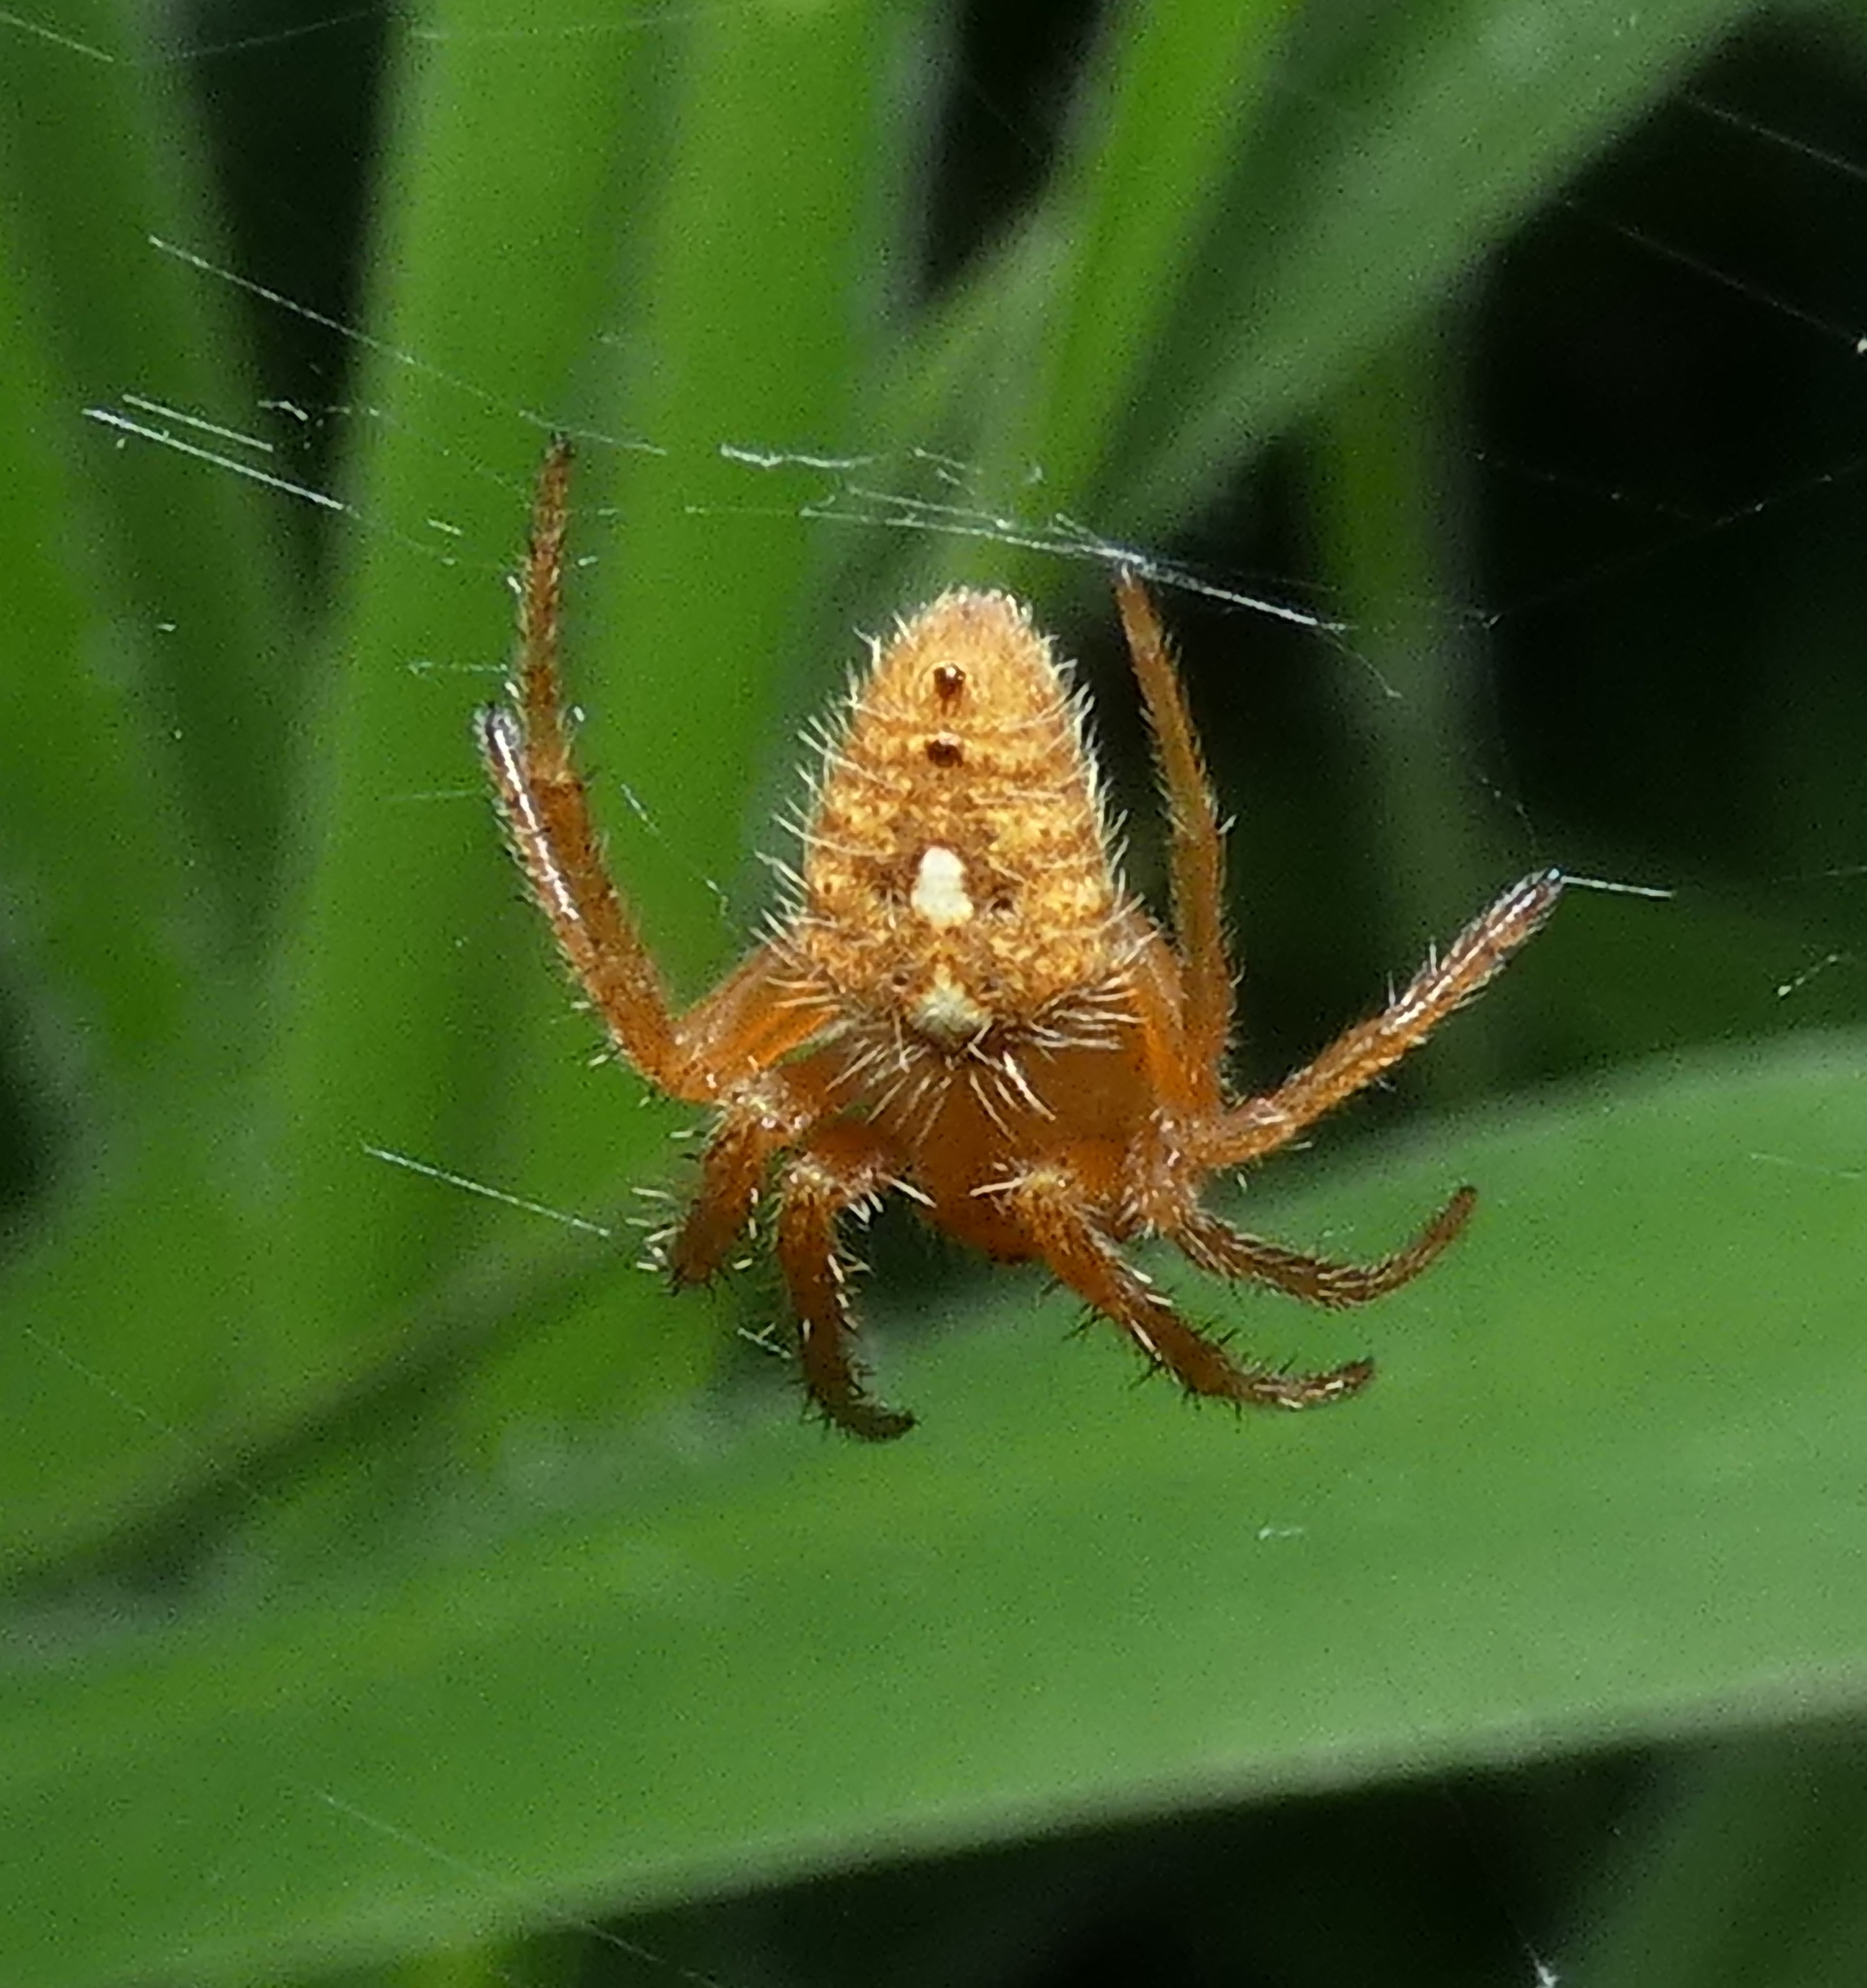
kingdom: Animalia
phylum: Arthropoda
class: Arachnida
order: Araneae
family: Araneidae
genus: Eriophora
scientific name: Eriophora edax
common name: Orb weavers
